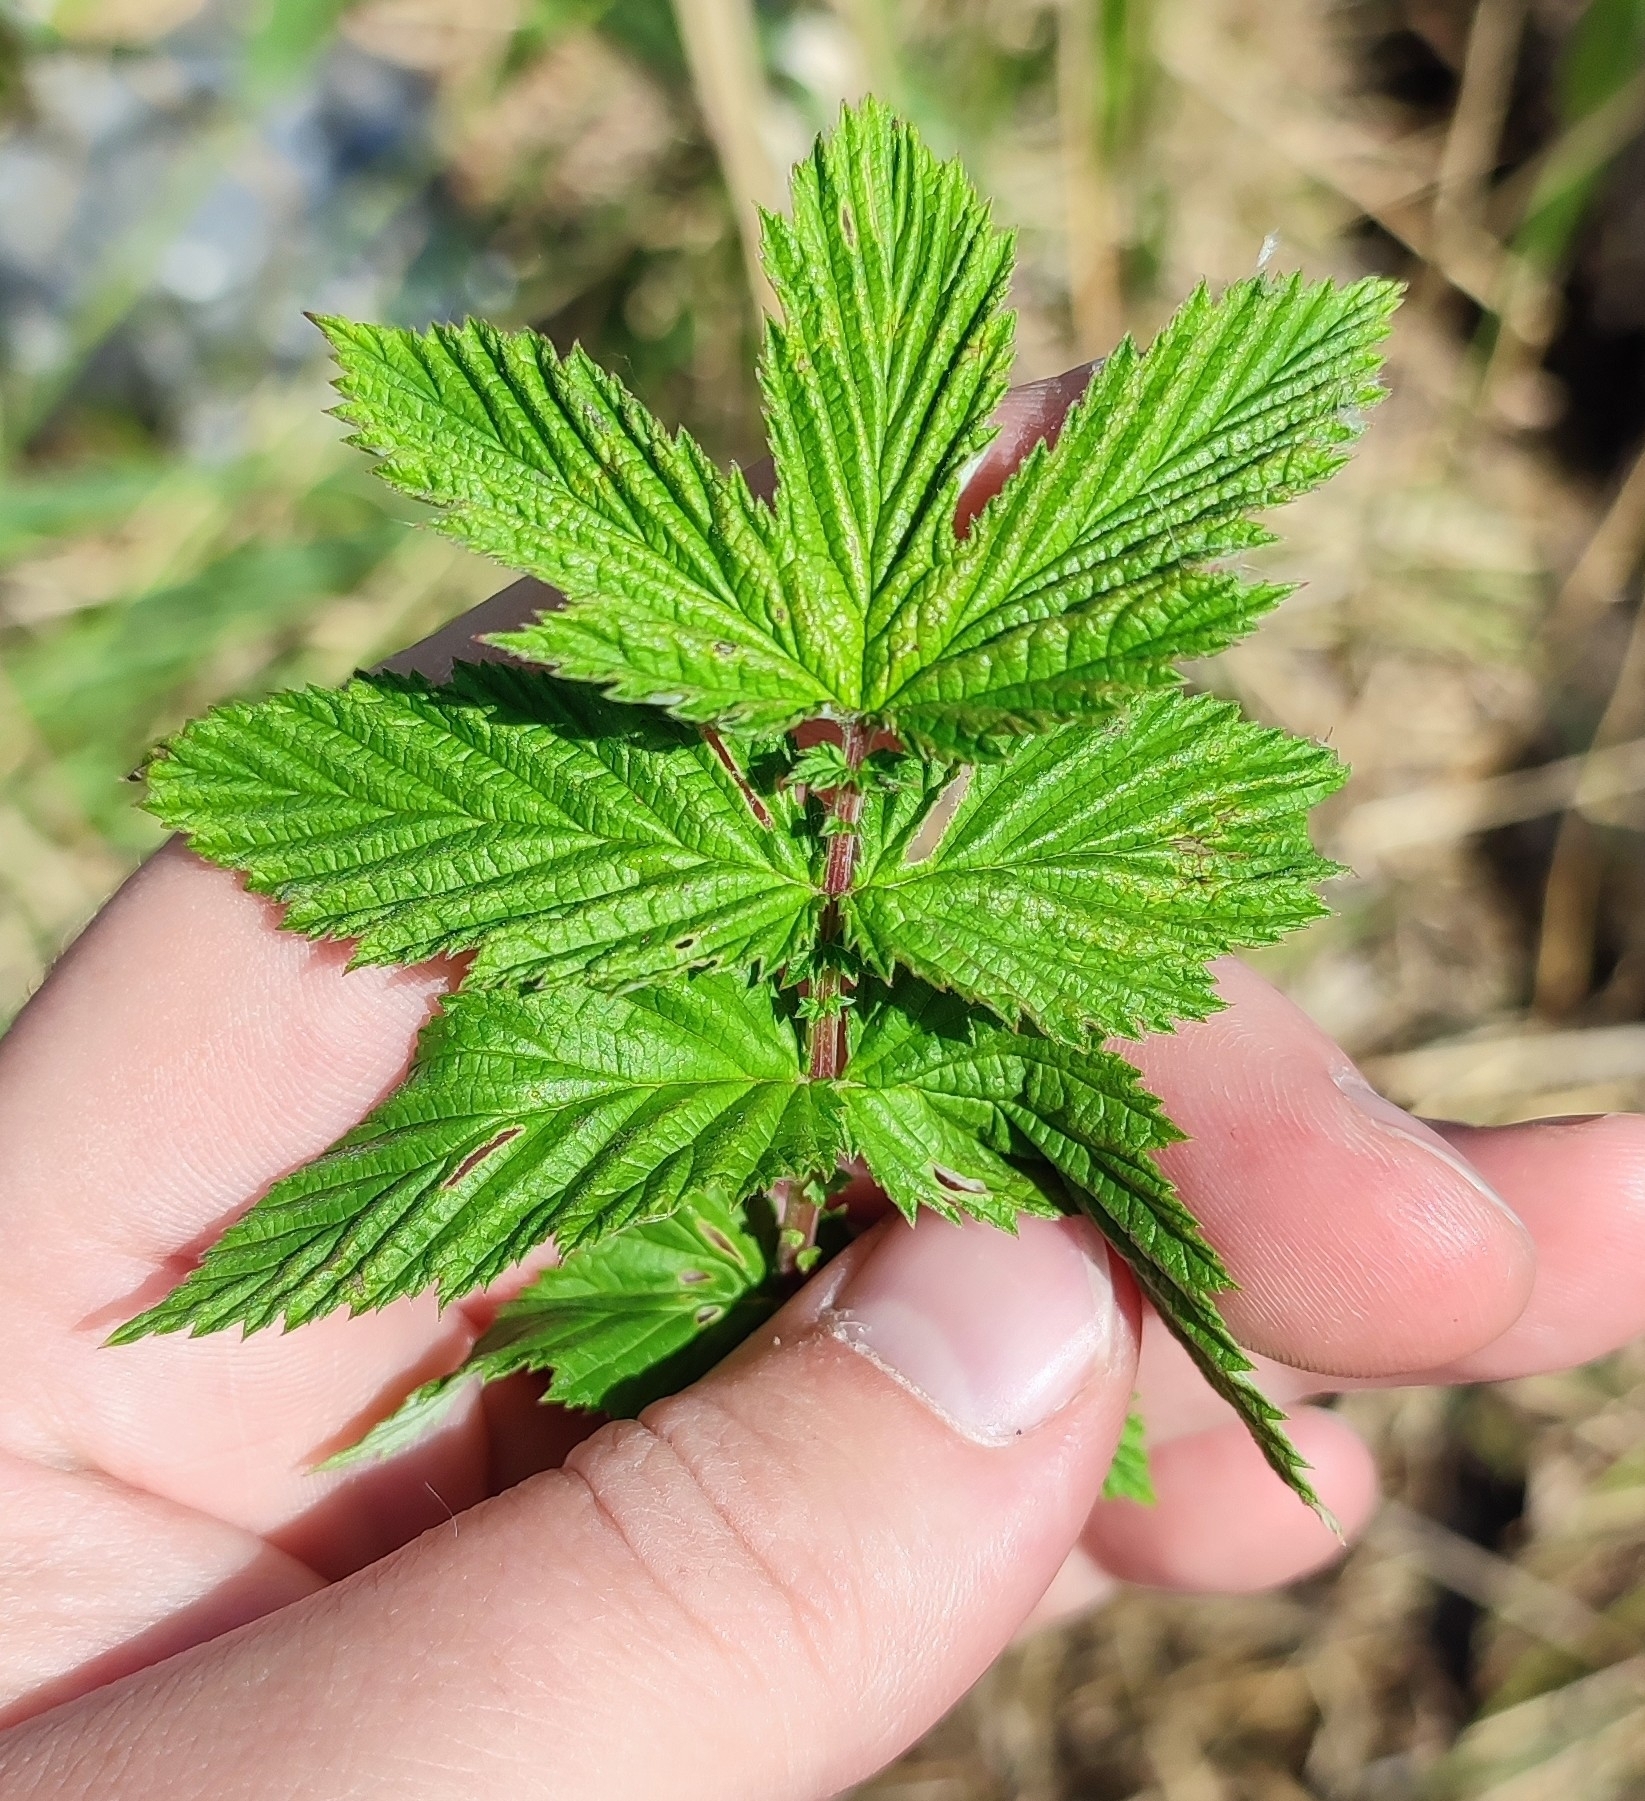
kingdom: Plantae
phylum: Tracheophyta
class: Magnoliopsida
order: Rosales
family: Rosaceae
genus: Filipendula
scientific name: Filipendula ulmaria
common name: Meadowsweet
